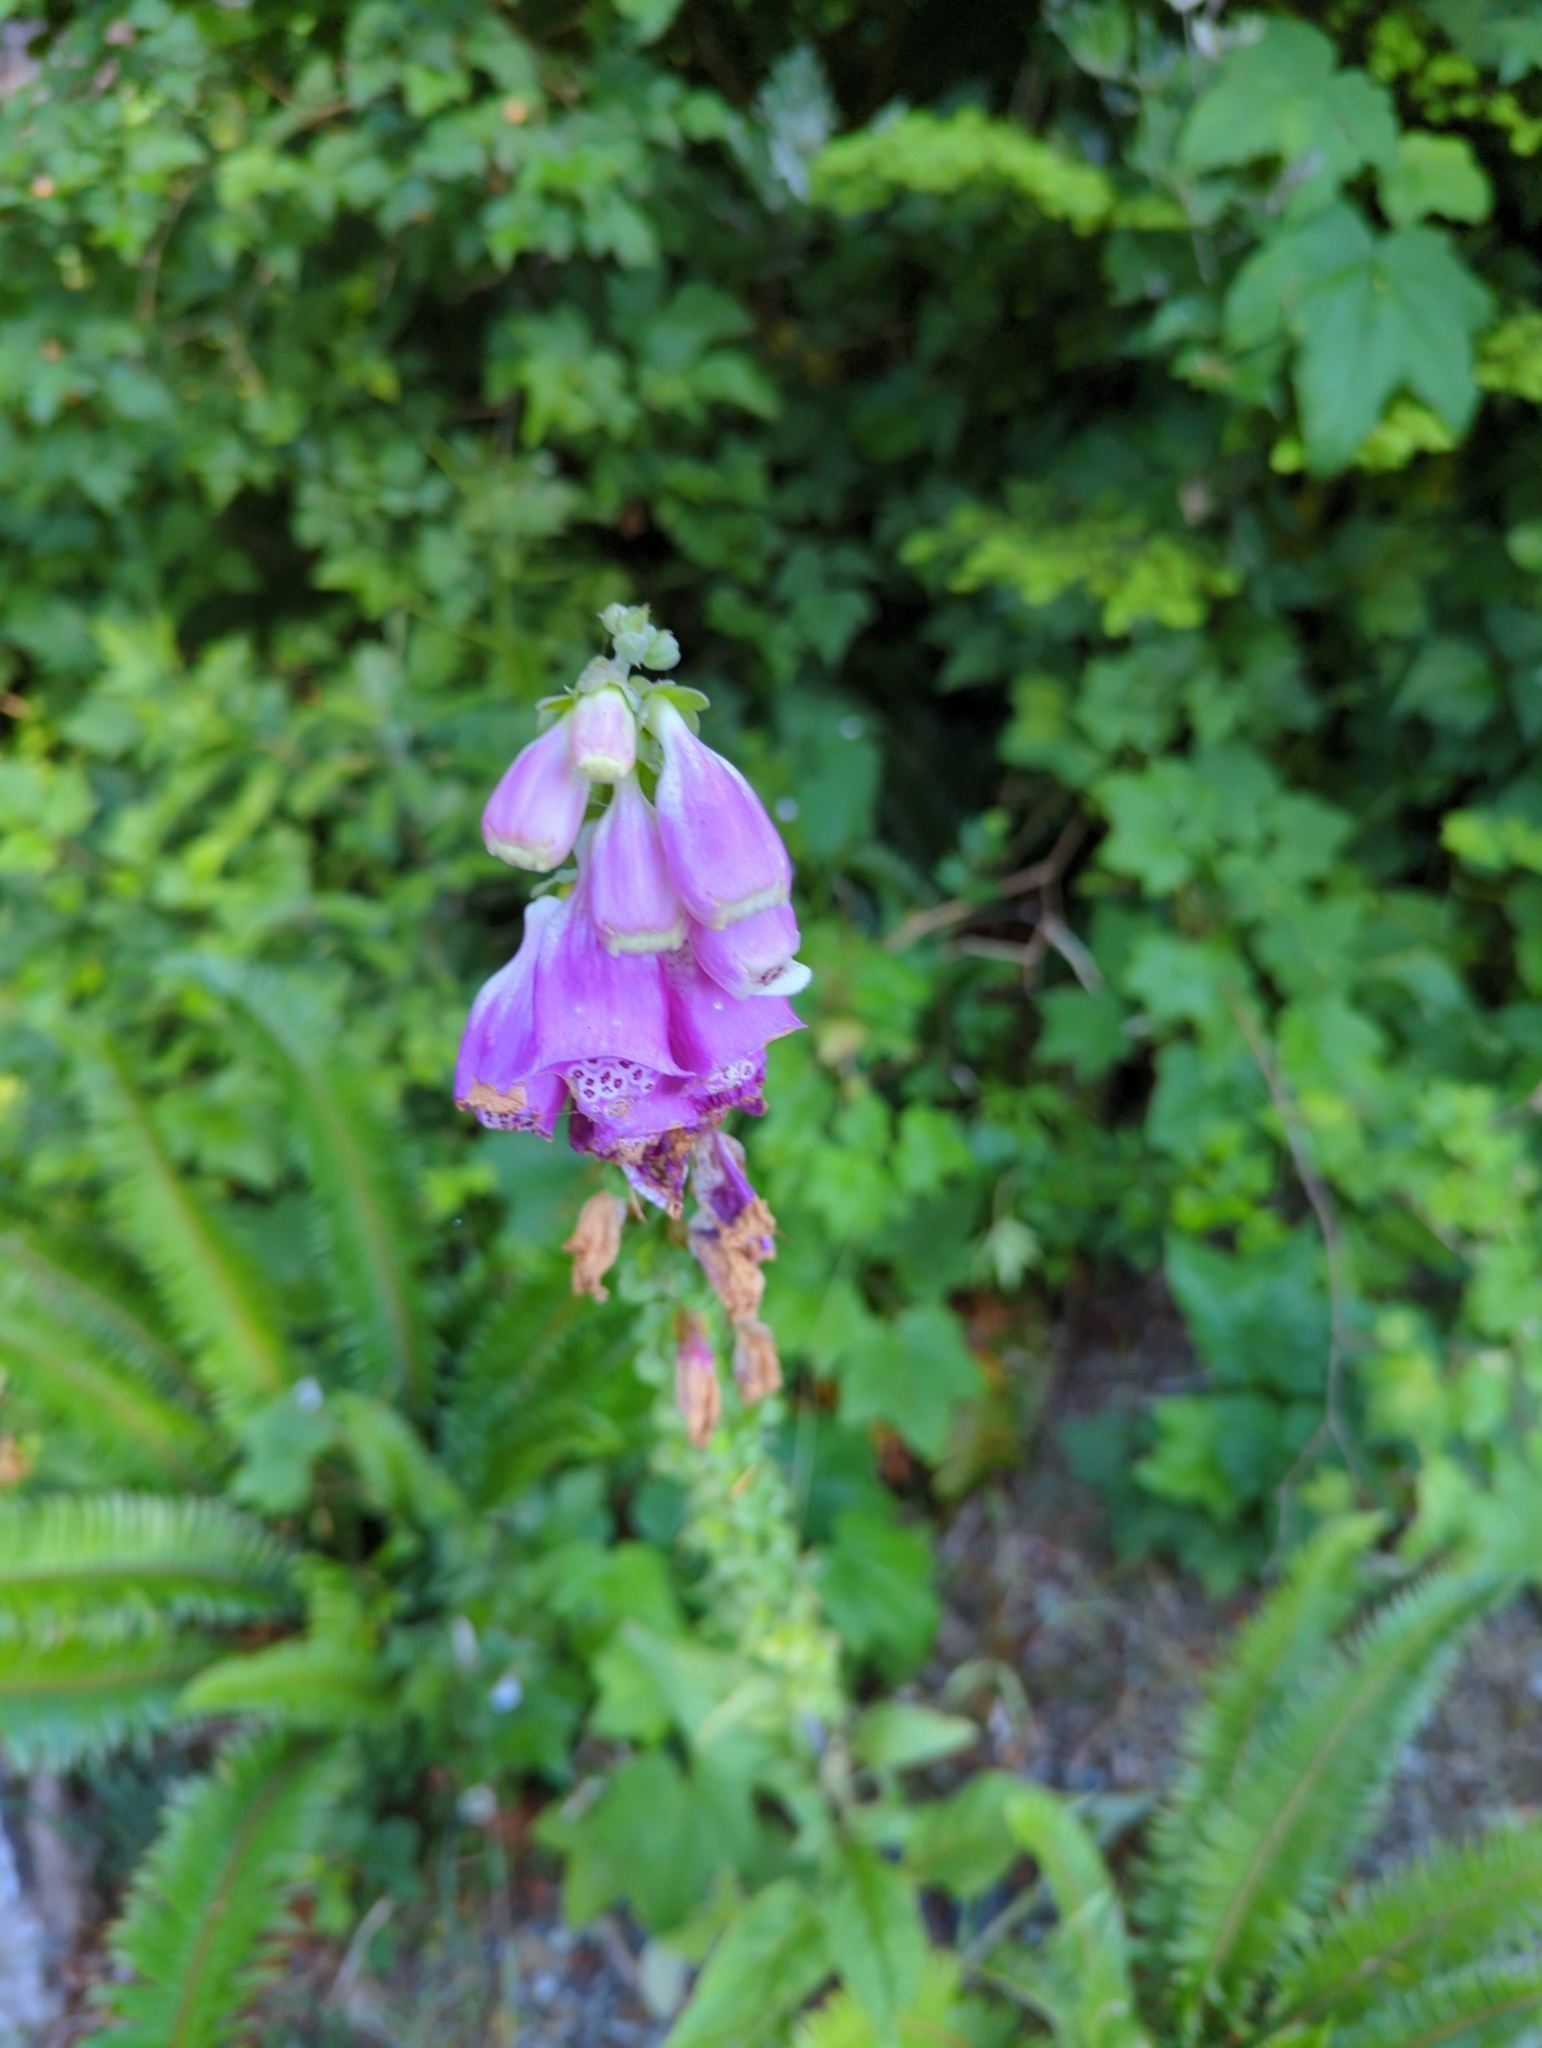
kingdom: Plantae
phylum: Tracheophyta
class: Magnoliopsida
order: Lamiales
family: Plantaginaceae
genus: Digitalis
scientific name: Digitalis purpurea
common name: Foxglove
